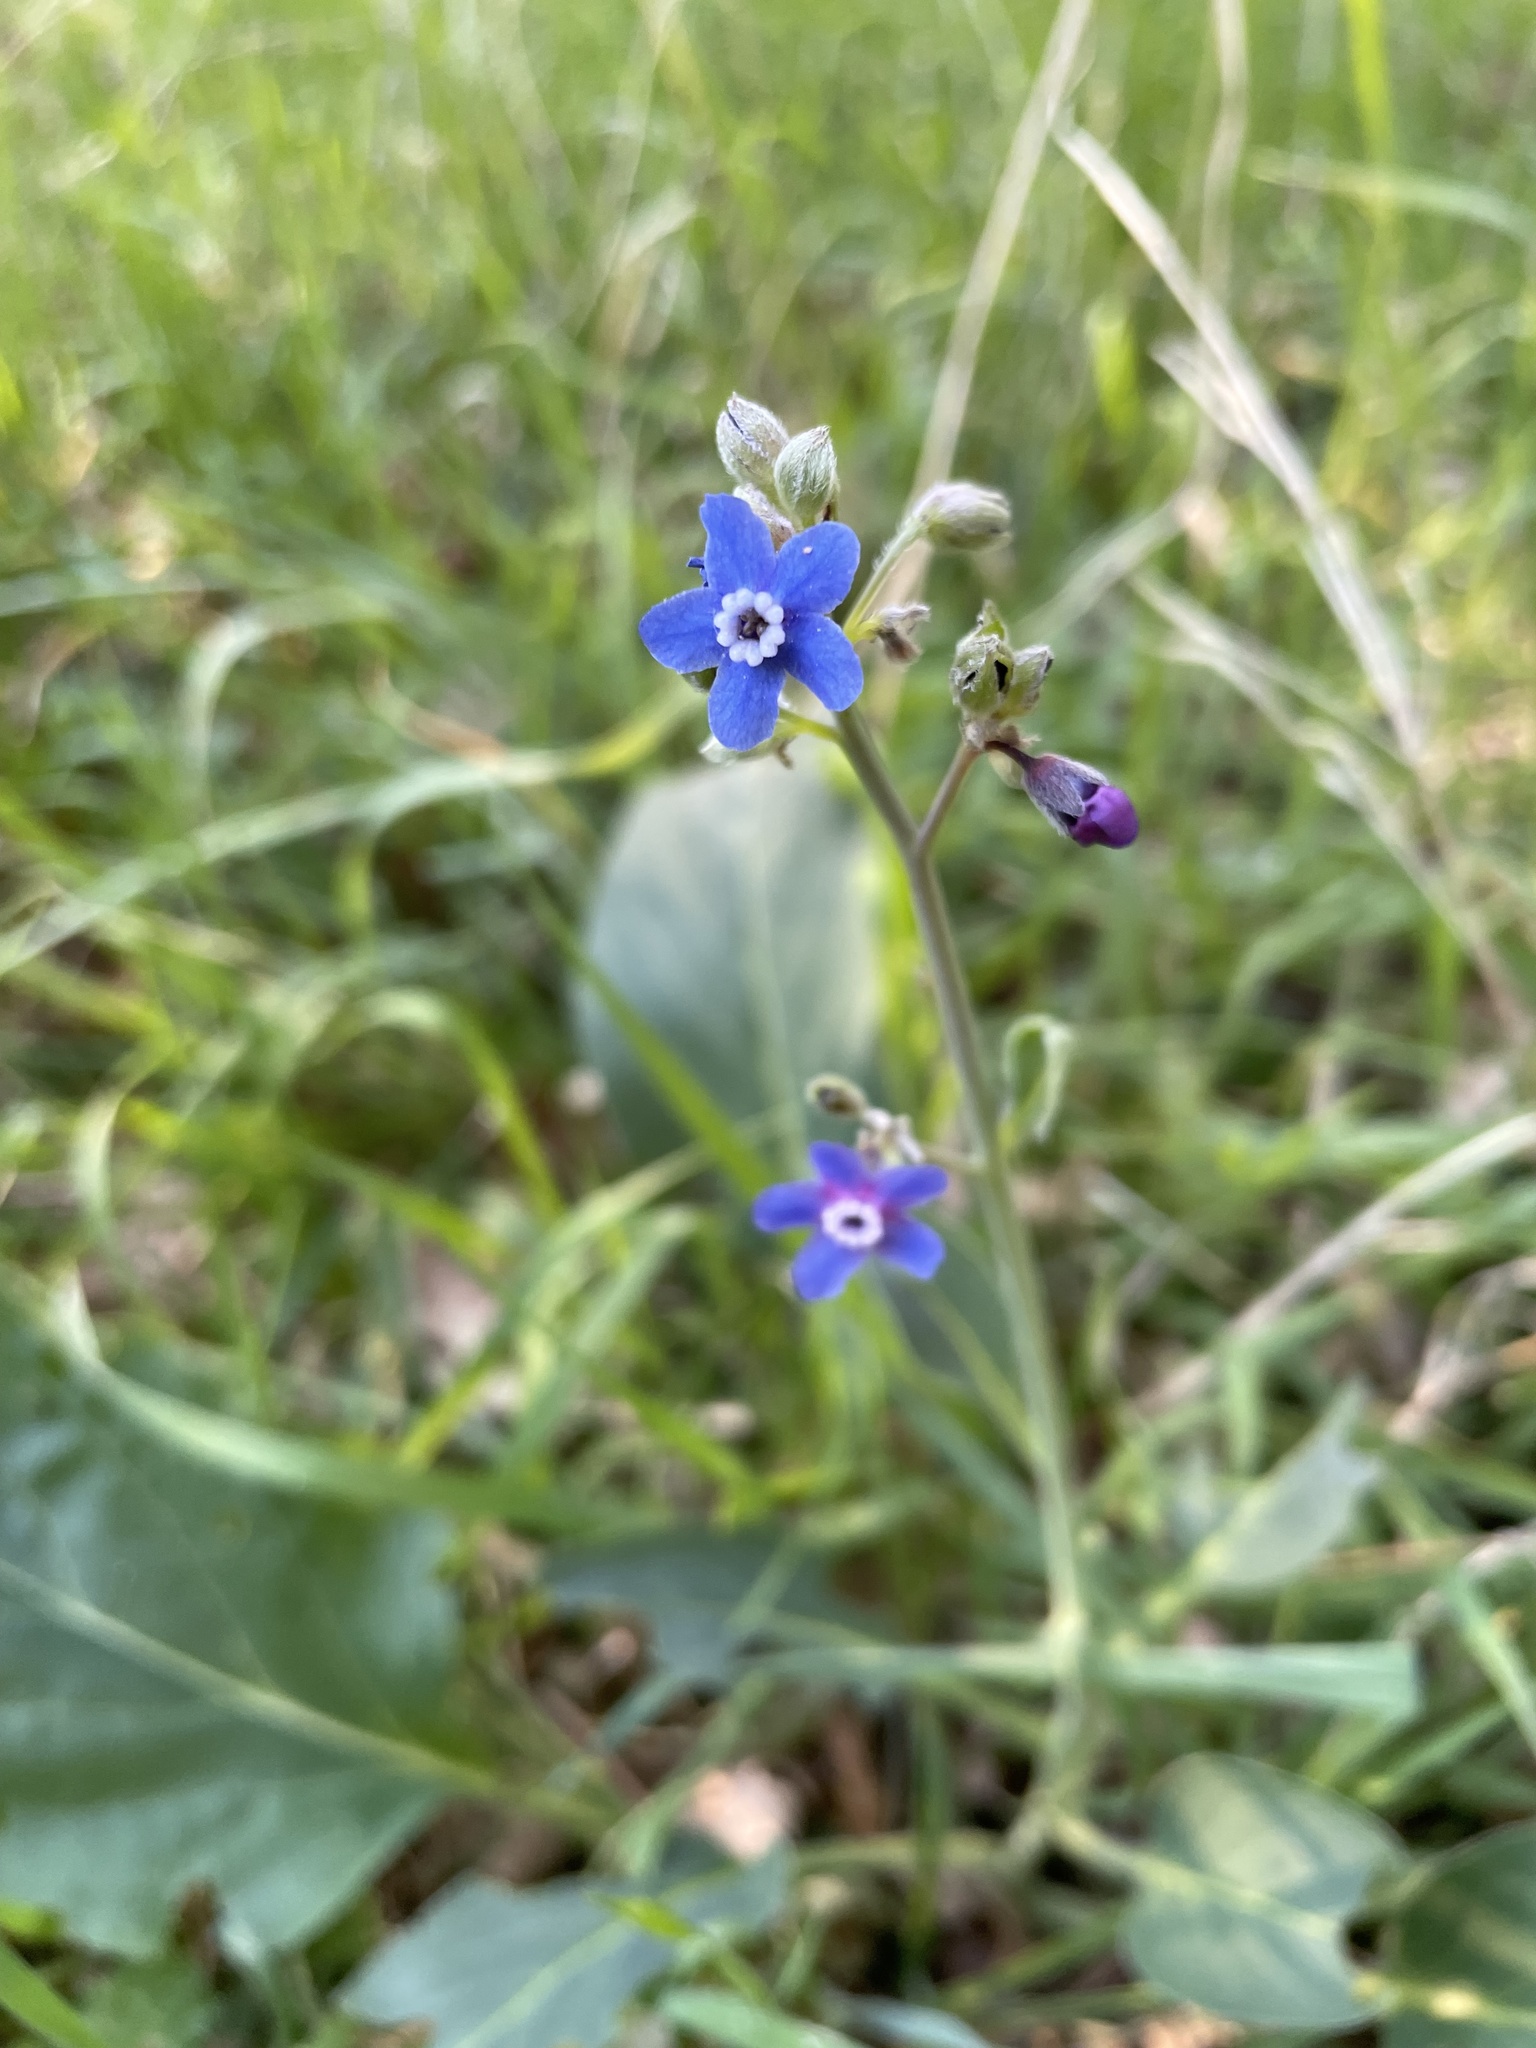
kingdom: Plantae
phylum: Tracheophyta
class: Magnoliopsida
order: Boraginales
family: Boraginaceae
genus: Adelinia
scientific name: Adelinia grande
